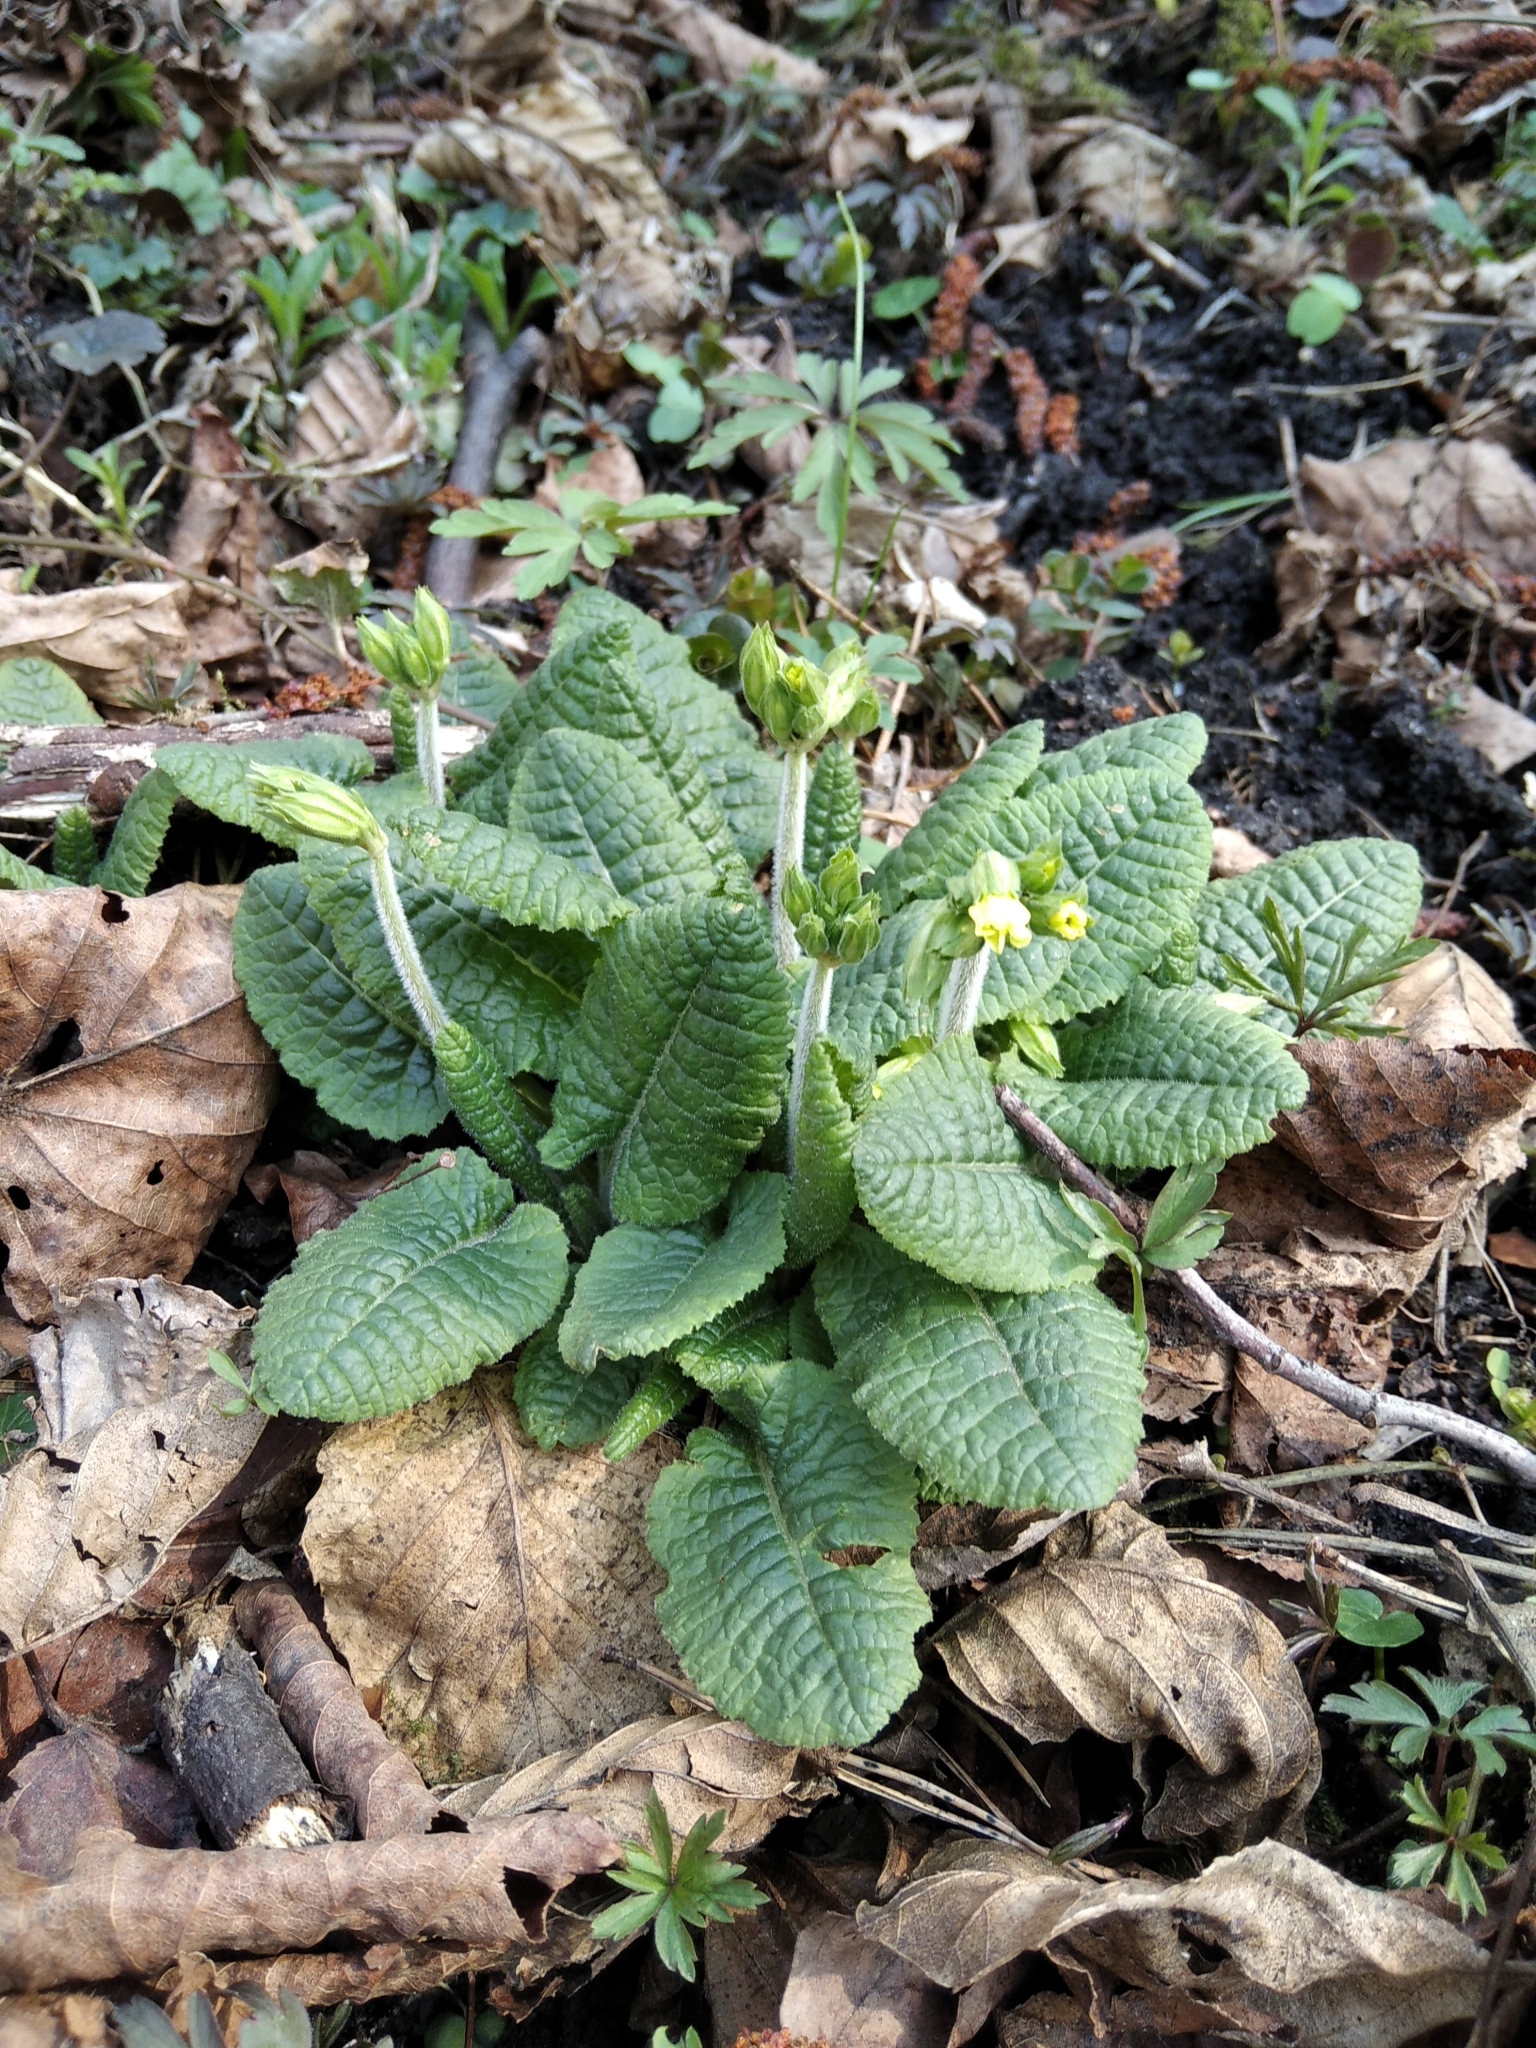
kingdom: Plantae
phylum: Tracheophyta
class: Magnoliopsida
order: Ericales
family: Primulaceae
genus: Primula
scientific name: Primula elatior
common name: Oxlip
